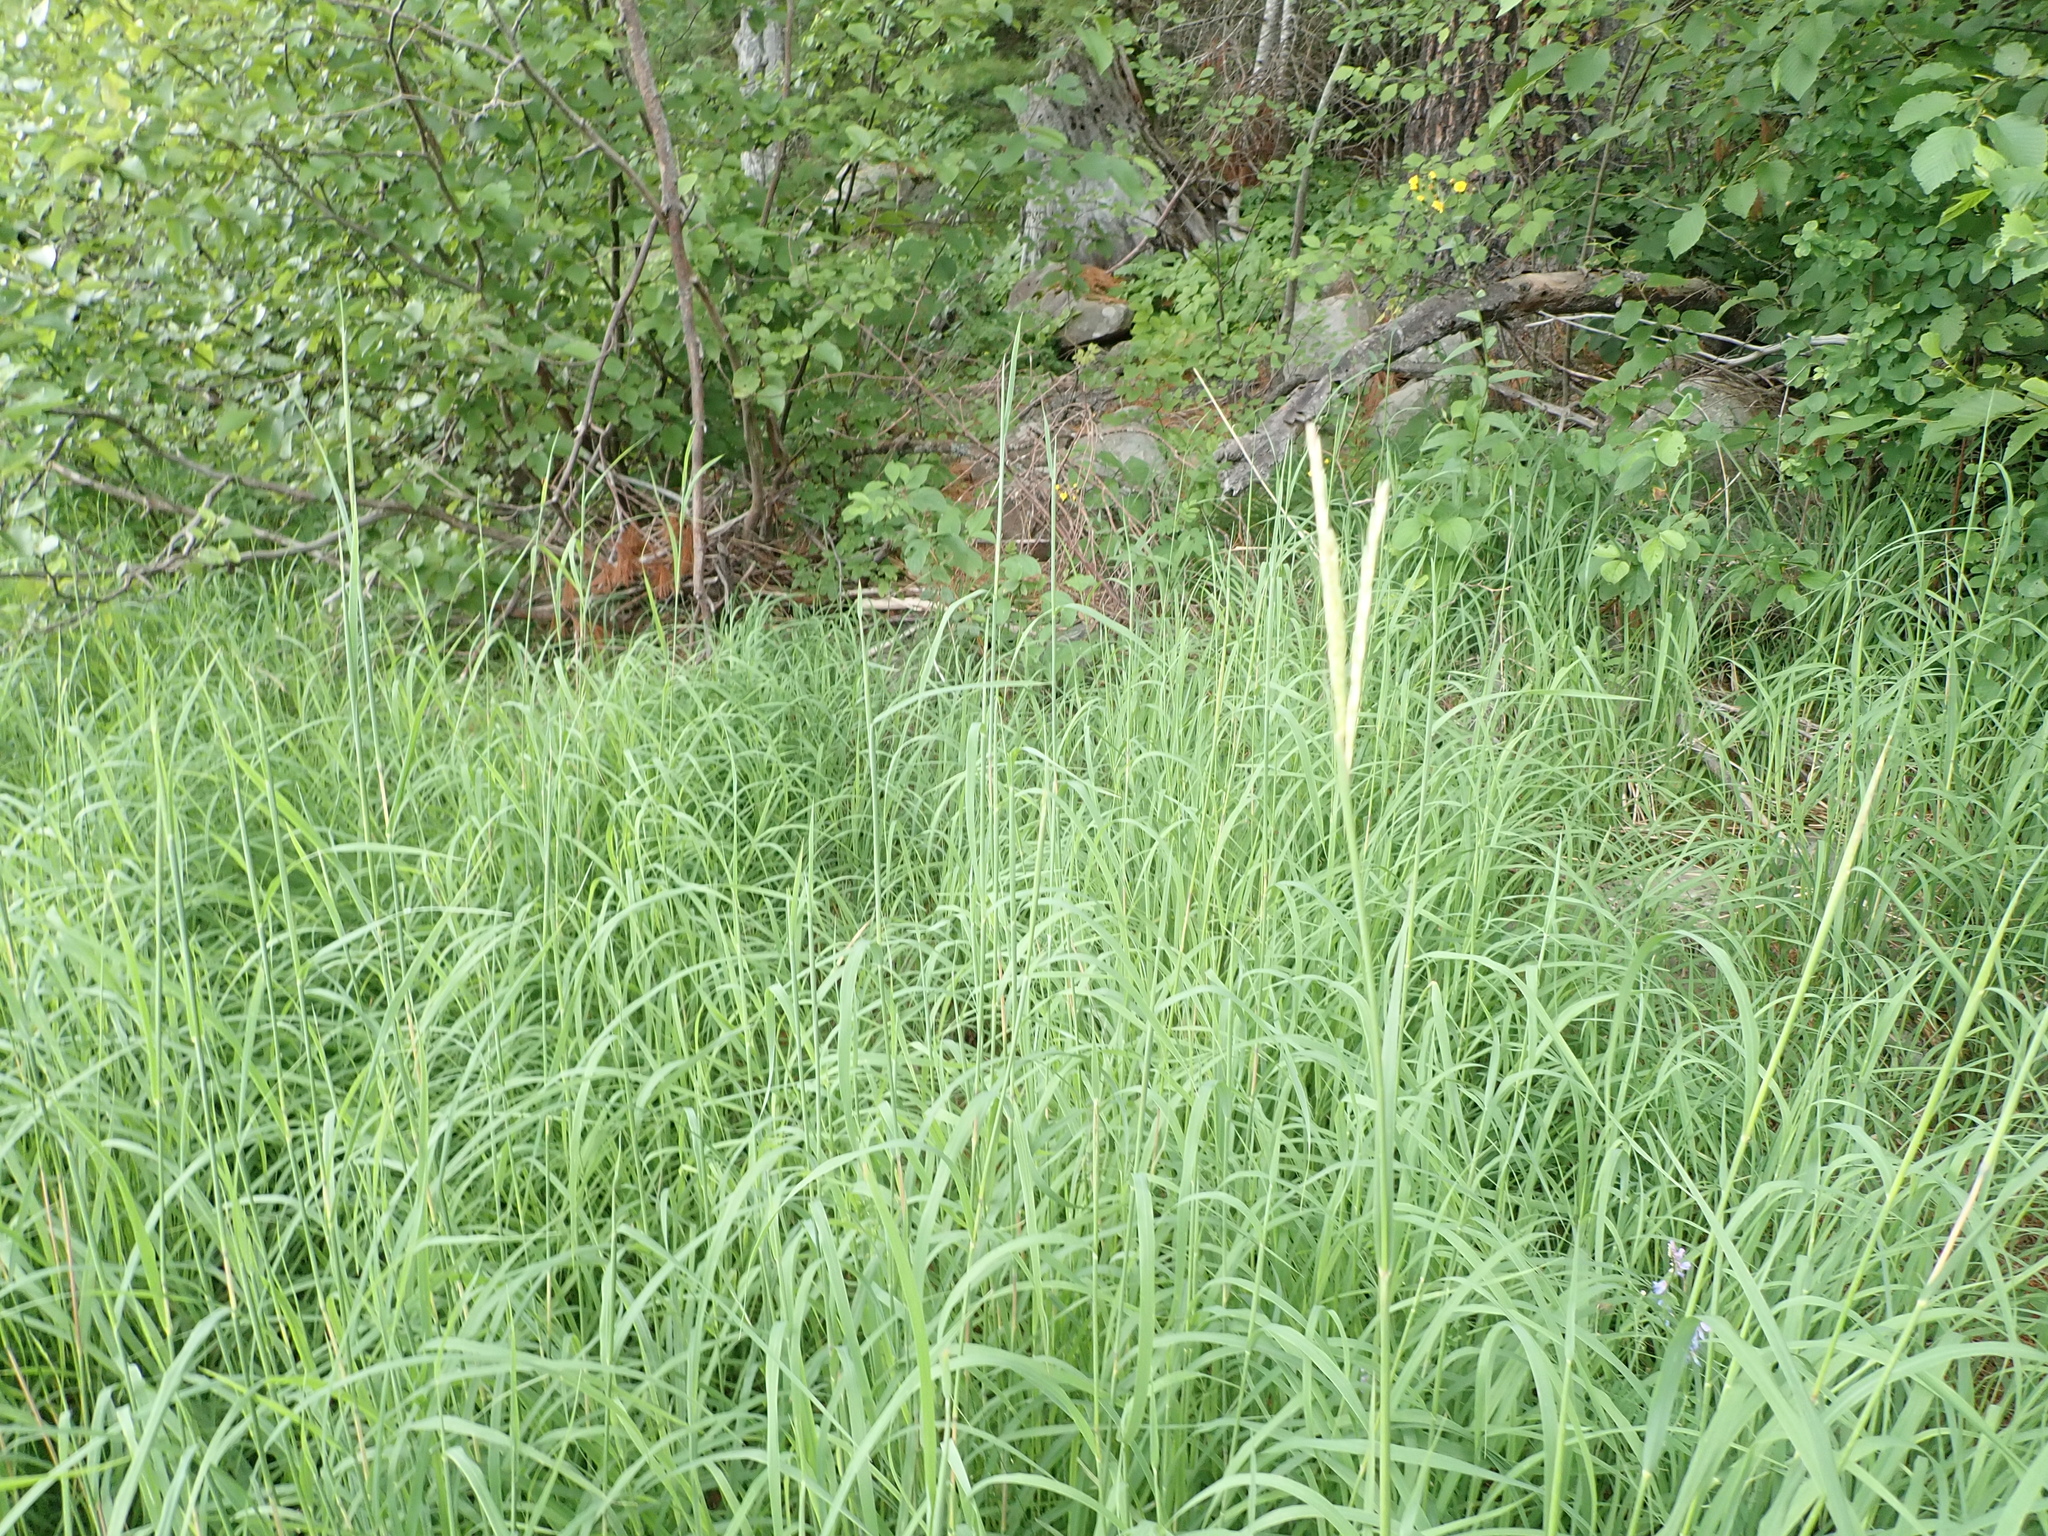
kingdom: Plantae
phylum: Tracheophyta
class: Liliopsida
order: Poales
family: Poaceae
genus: Andropogon
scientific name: Andropogon gerardi
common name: Big bluestem
